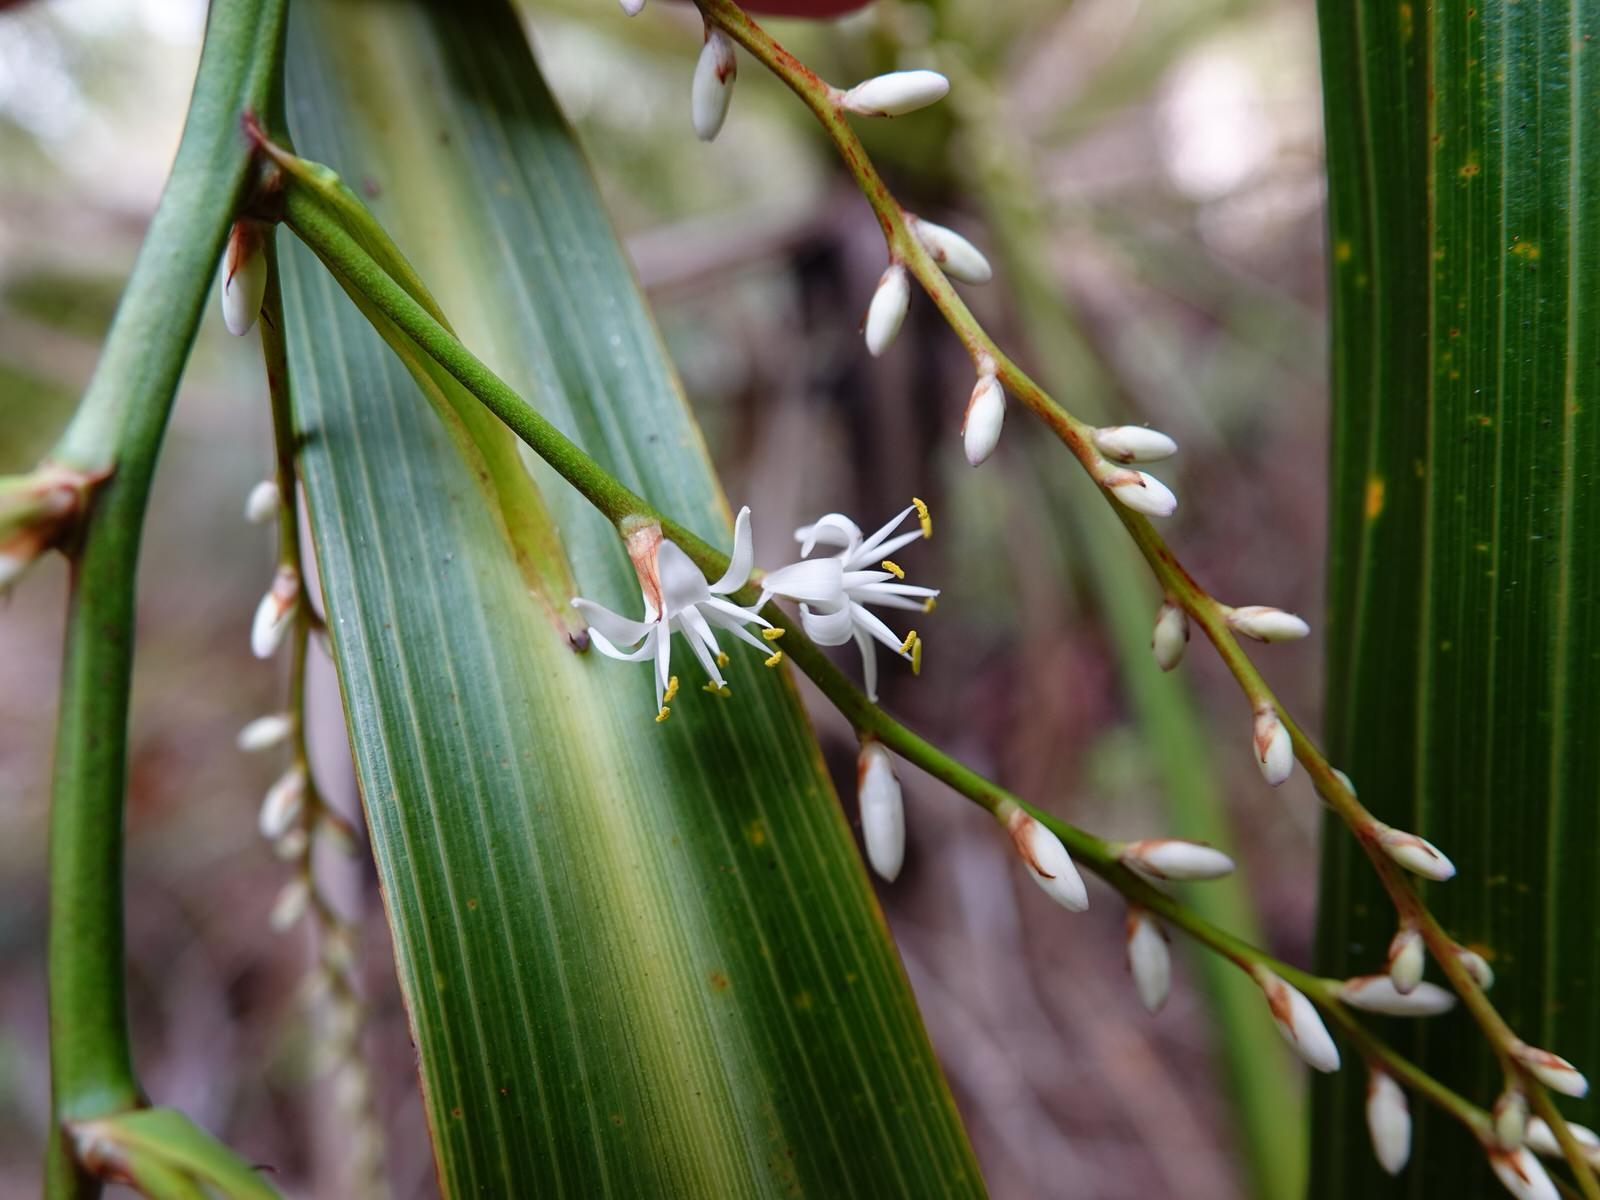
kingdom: Plantae
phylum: Tracheophyta
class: Liliopsida
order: Asparagales
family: Asparagaceae
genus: Cordyline
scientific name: Cordyline banksii
